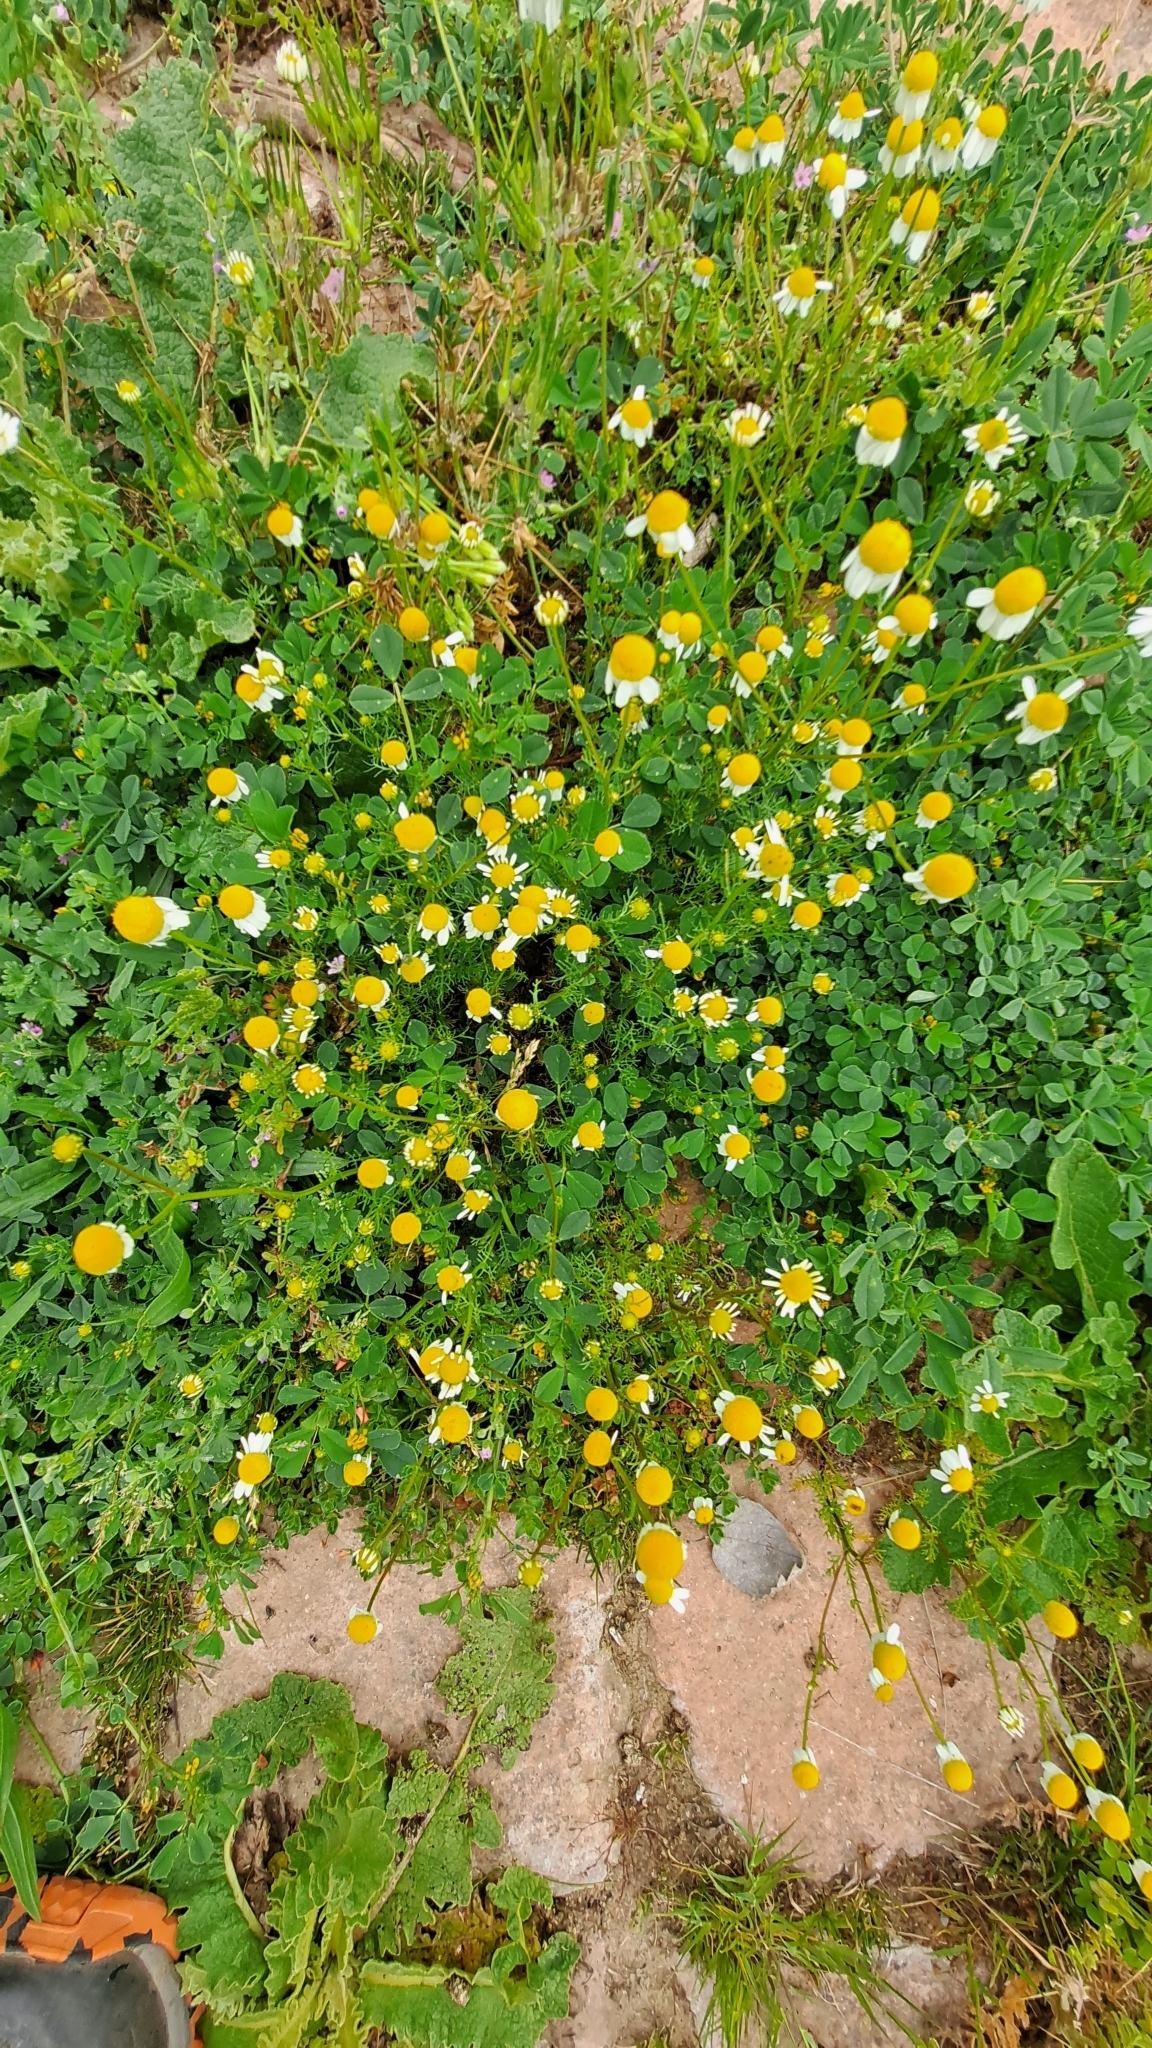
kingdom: Plantae
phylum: Tracheophyta
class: Magnoliopsida
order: Asterales
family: Asteraceae
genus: Matricaria
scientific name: Matricaria chamomilla
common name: Scented mayweed
